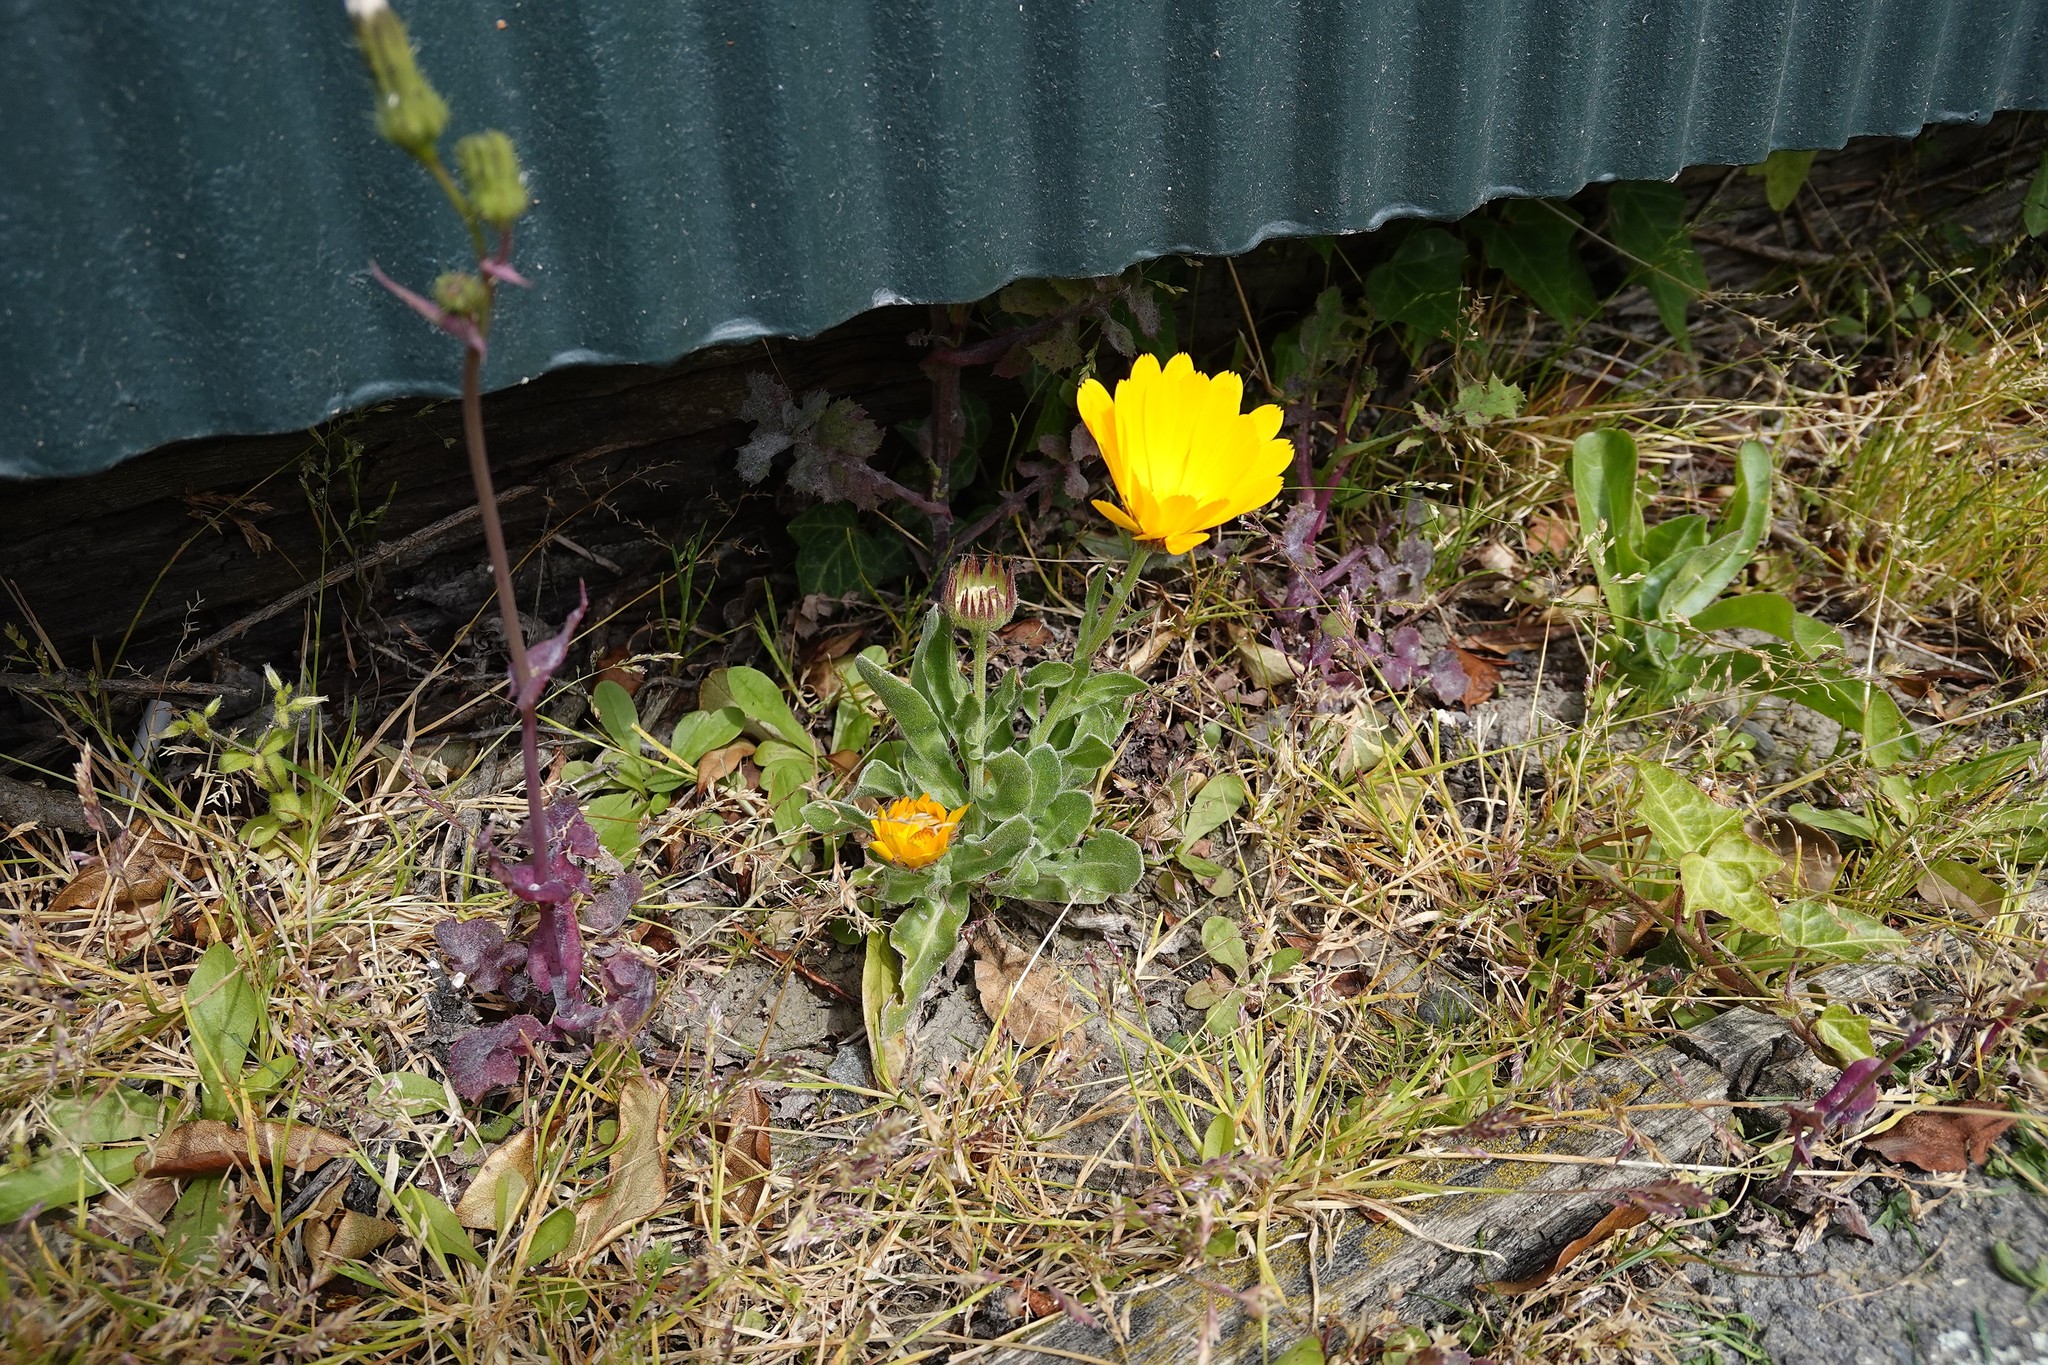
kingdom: Plantae
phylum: Tracheophyta
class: Magnoliopsida
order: Asterales
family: Asteraceae
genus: Calendula
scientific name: Calendula officinalis
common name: Pot marigold
